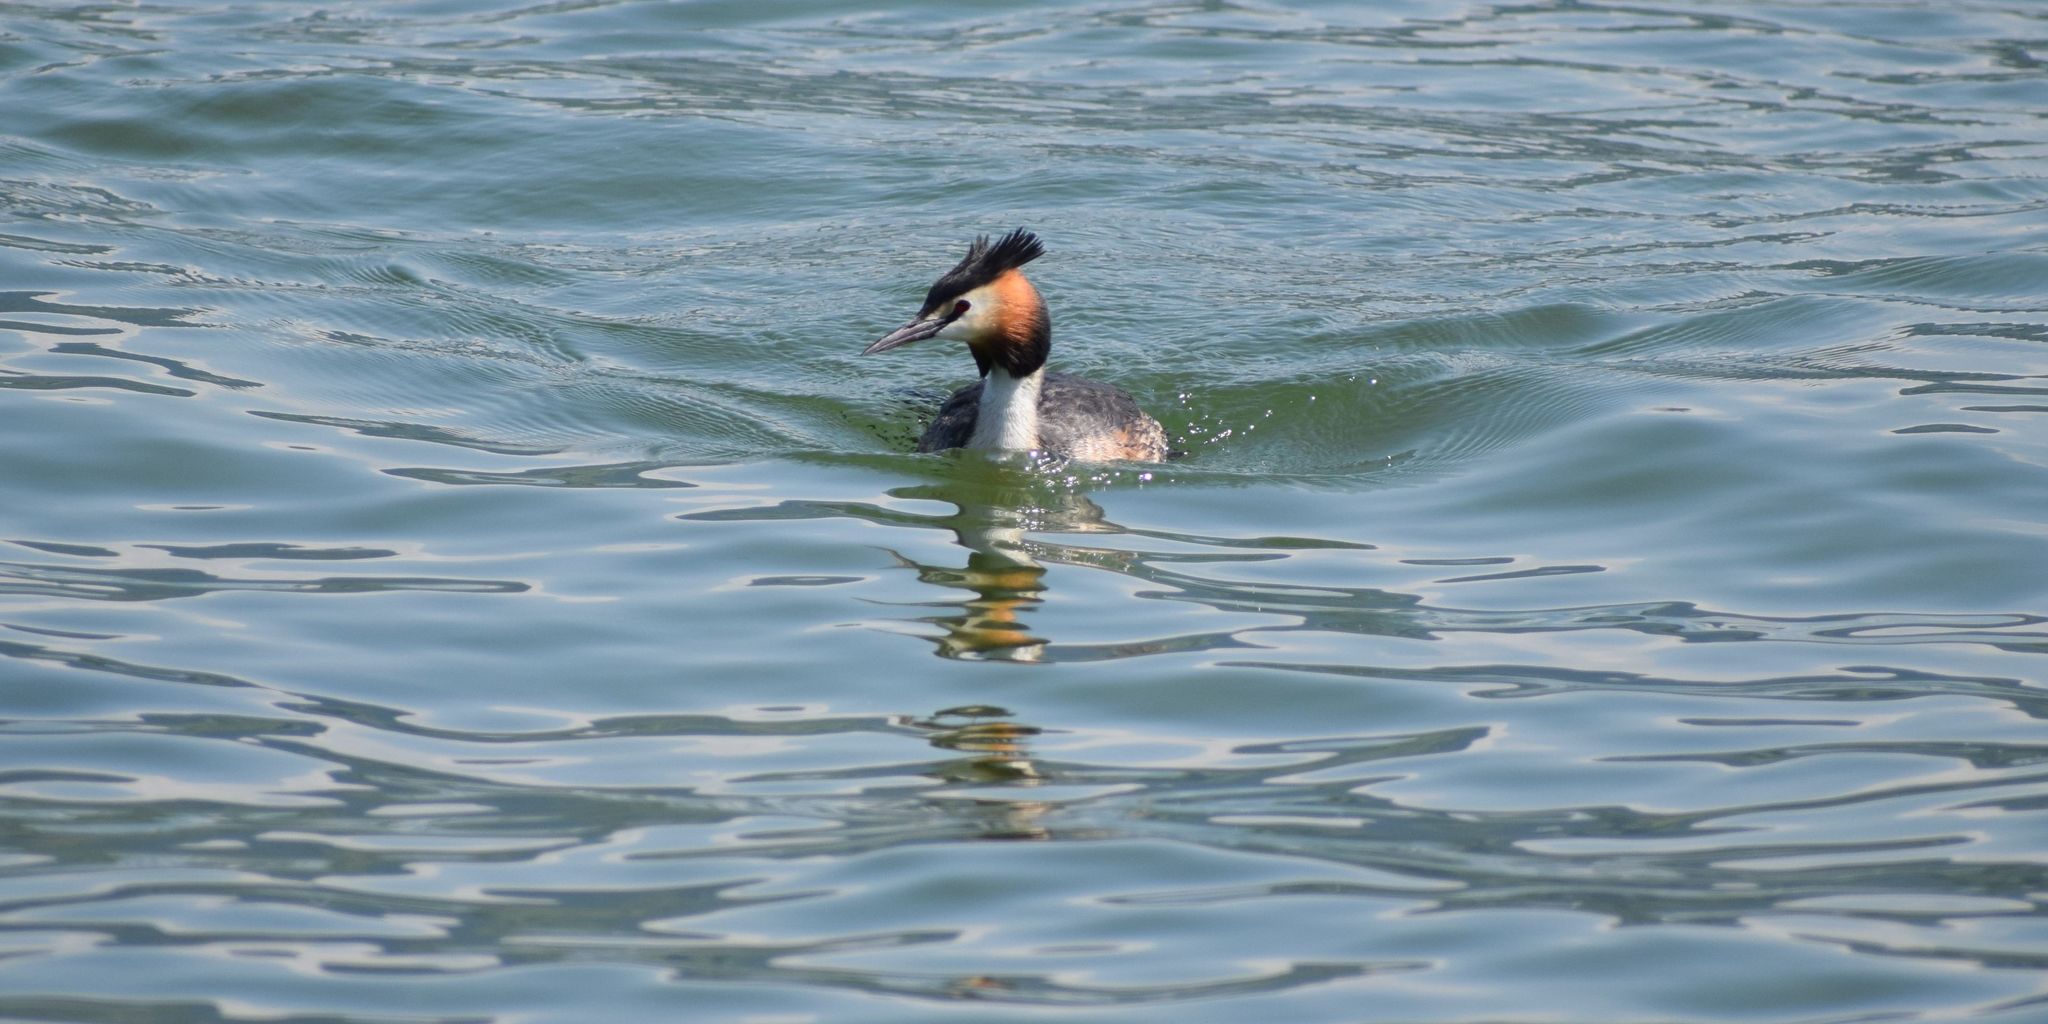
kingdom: Animalia
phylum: Chordata
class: Aves
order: Podicipediformes
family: Podicipedidae
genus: Podiceps
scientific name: Podiceps cristatus
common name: Great crested grebe
